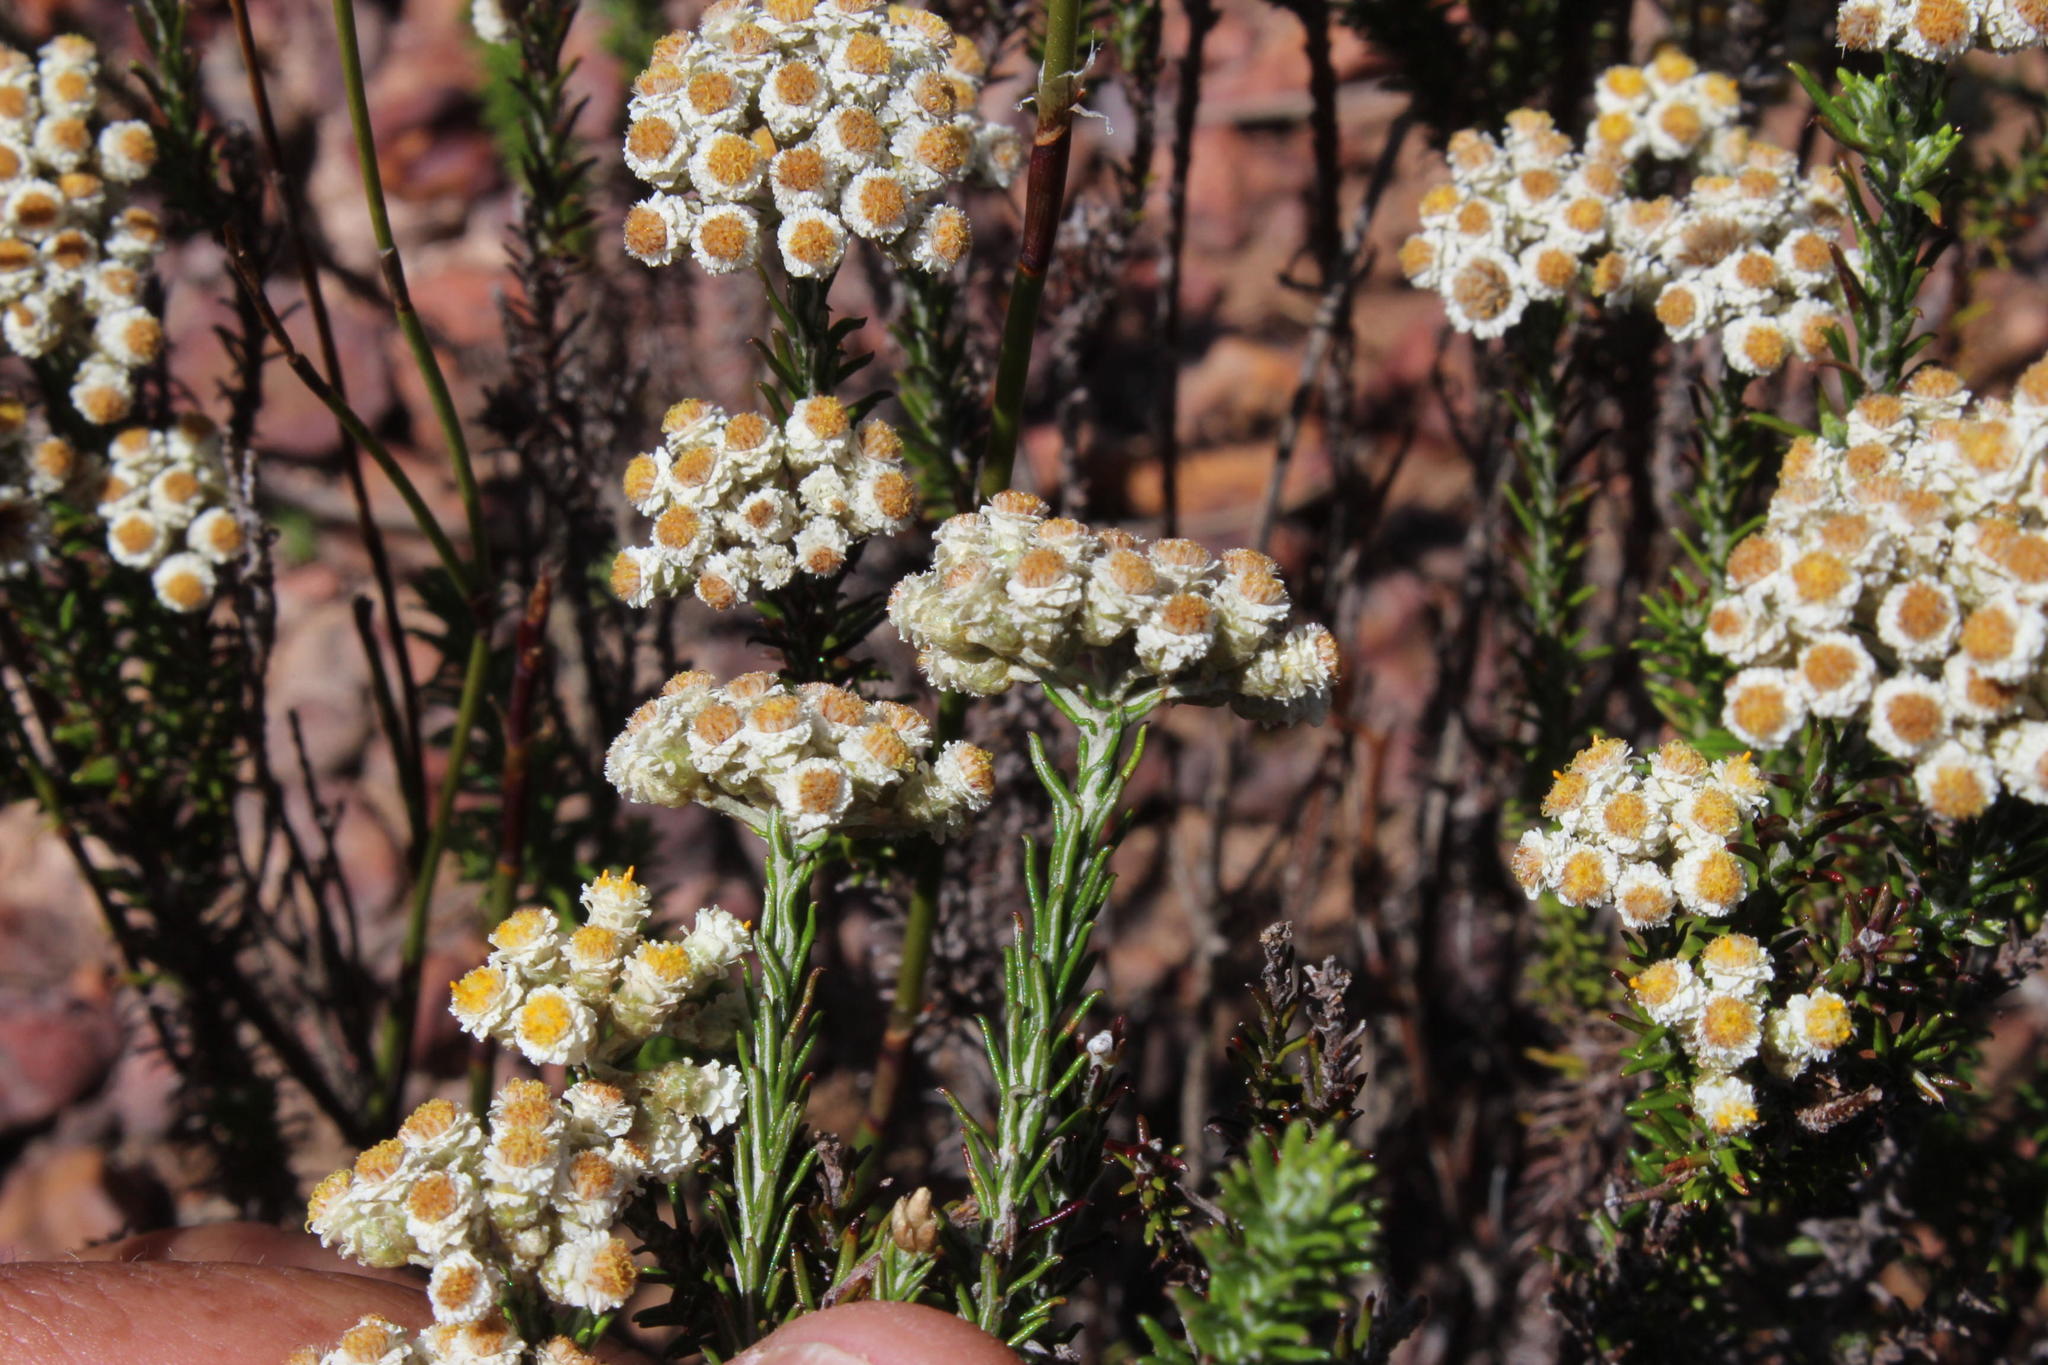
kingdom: Plantae
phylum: Tracheophyta
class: Magnoliopsida
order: Asterales
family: Asteraceae
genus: Helichrysum
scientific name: Helichrysum teretifolium
